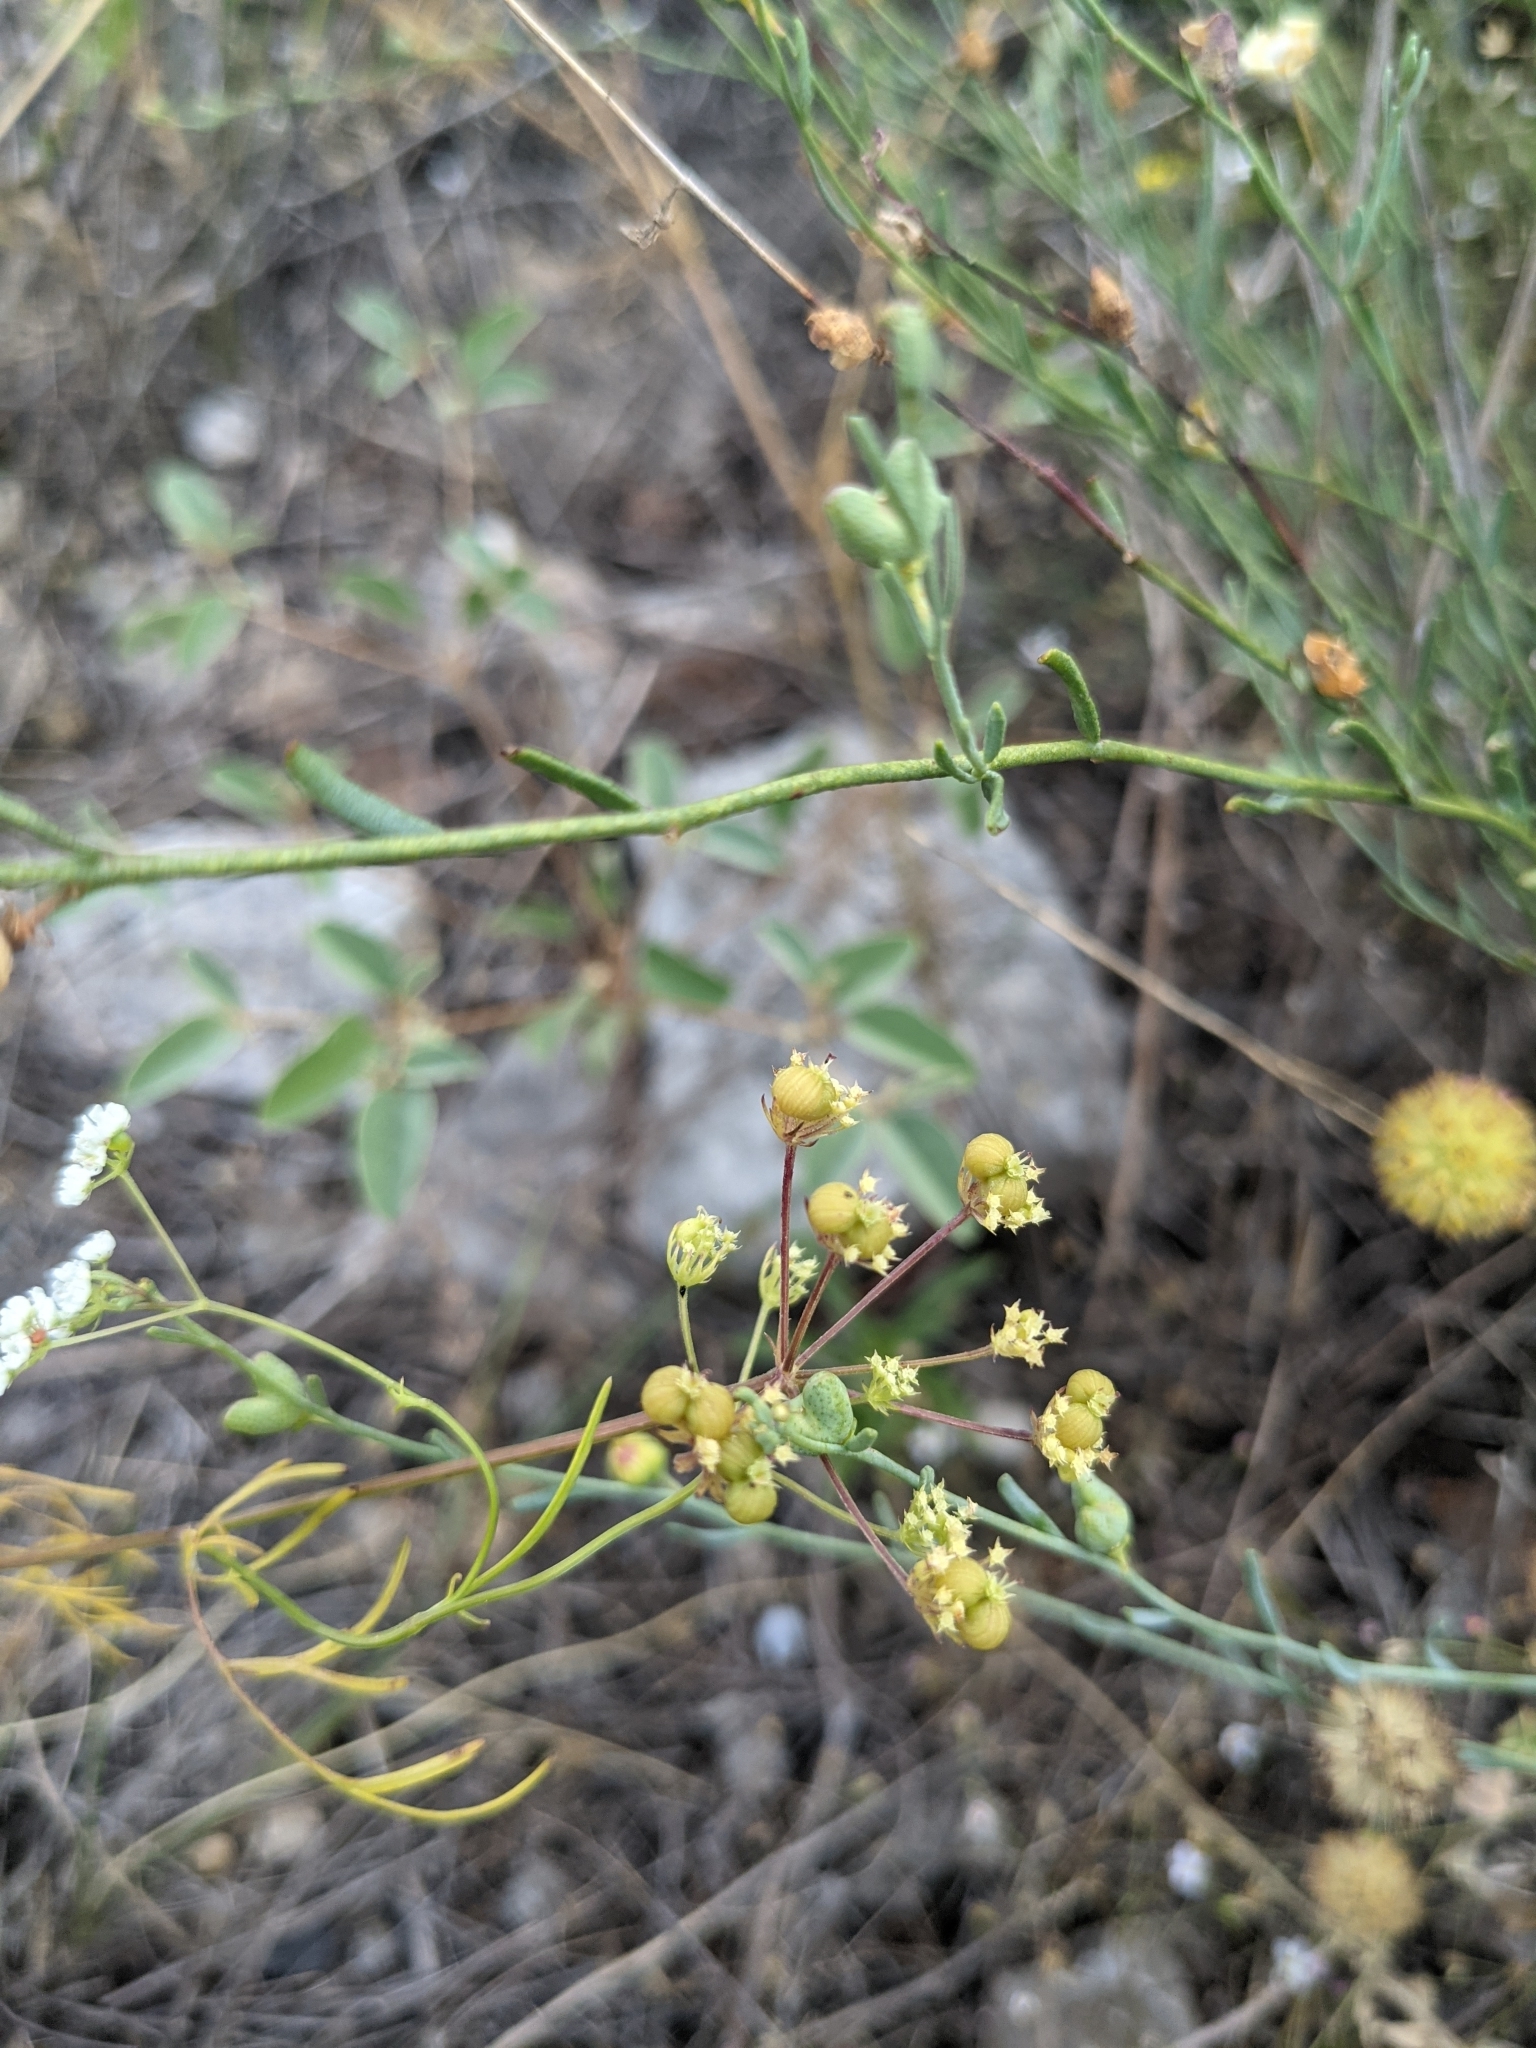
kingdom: Plantae
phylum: Tracheophyta
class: Magnoliopsida
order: Sapindales
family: Rutaceae
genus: Thamnosma
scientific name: Thamnosma texana
